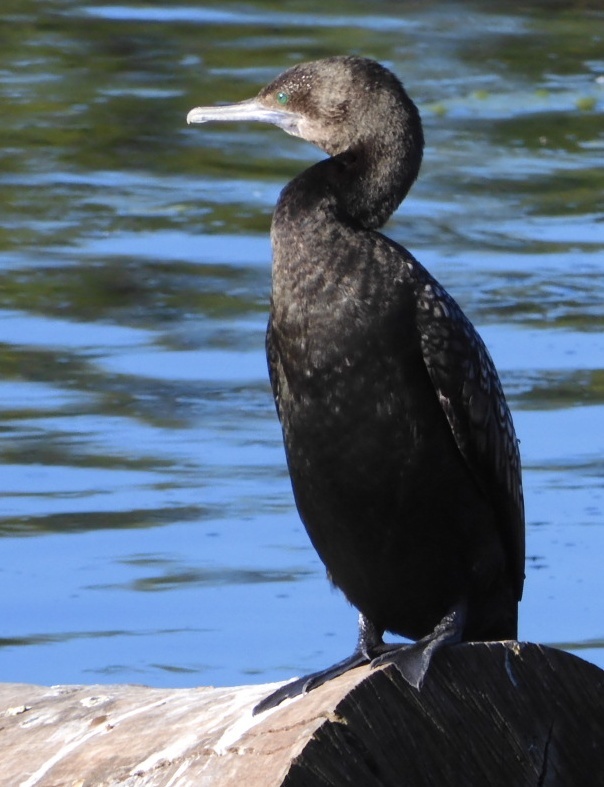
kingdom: Animalia
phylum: Chordata
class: Aves
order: Suliformes
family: Phalacrocoracidae
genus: Phalacrocorax
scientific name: Phalacrocorax sulcirostris
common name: Little black cormorant
